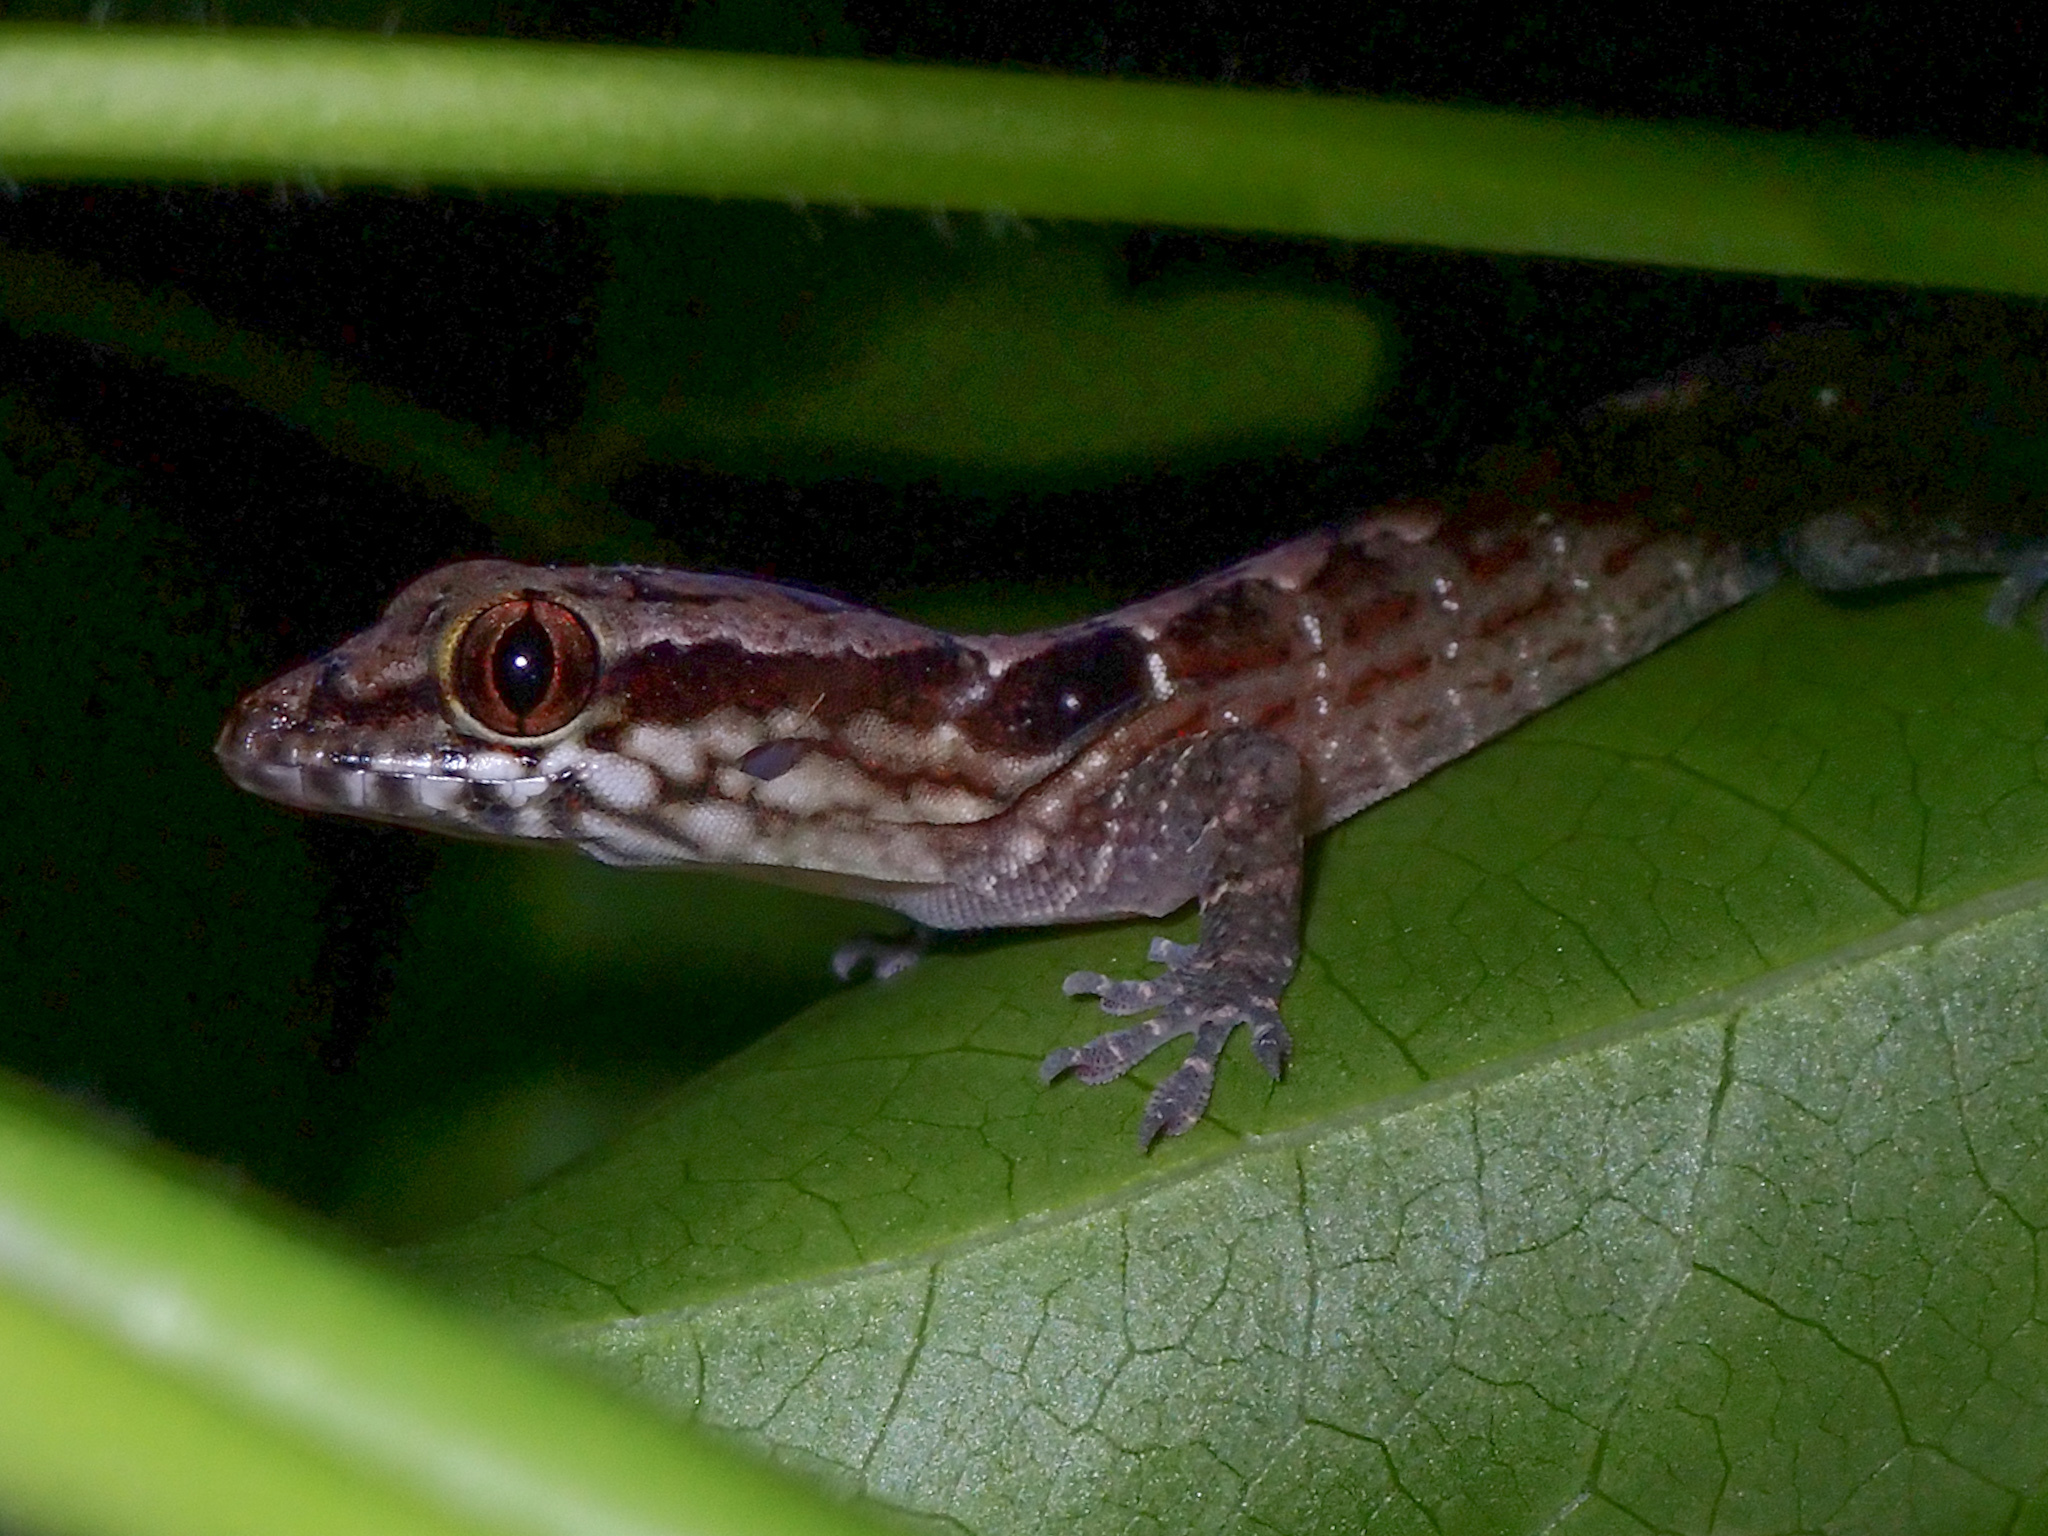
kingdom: Animalia
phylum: Chordata
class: Squamata
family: Sphaerodactylidae
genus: Aristelliger
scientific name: Aristelliger praesignis
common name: Croaking lizard
